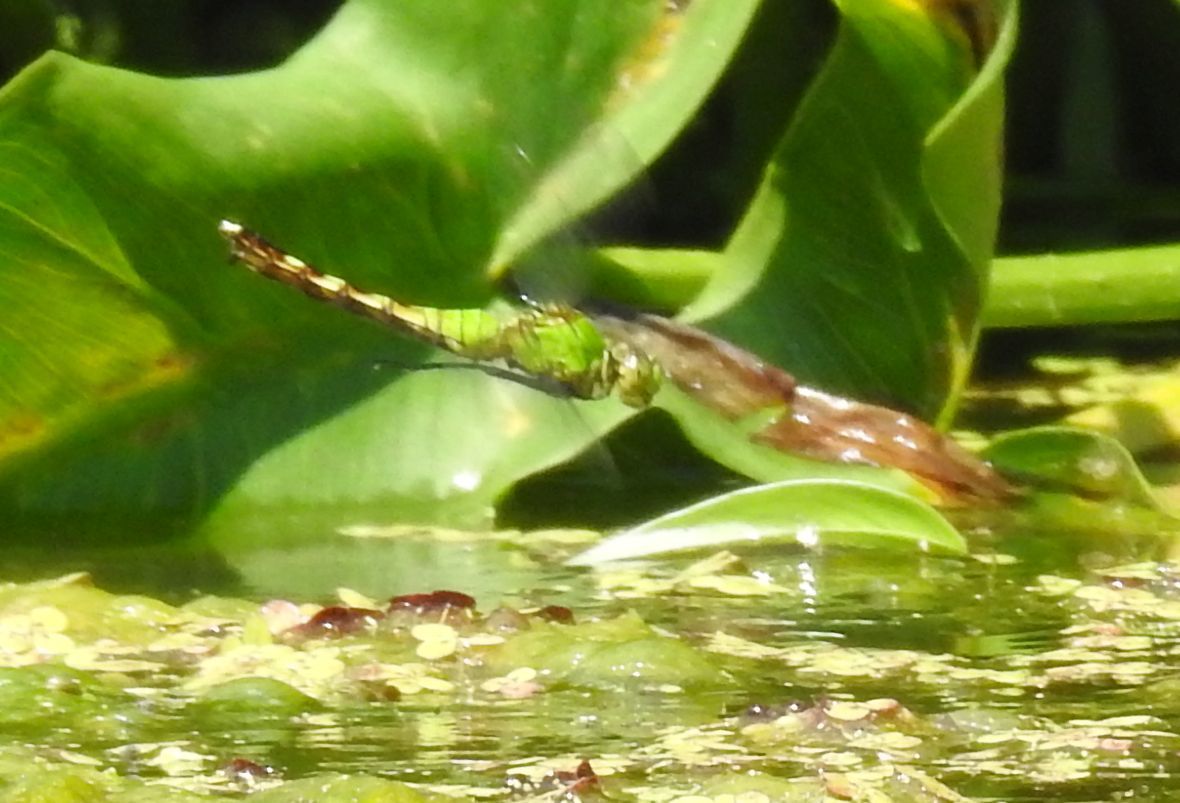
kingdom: Animalia
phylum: Arthropoda
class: Insecta
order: Odonata
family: Libellulidae
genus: Erythemis
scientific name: Erythemis simplicicollis
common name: Eastern pondhawk
